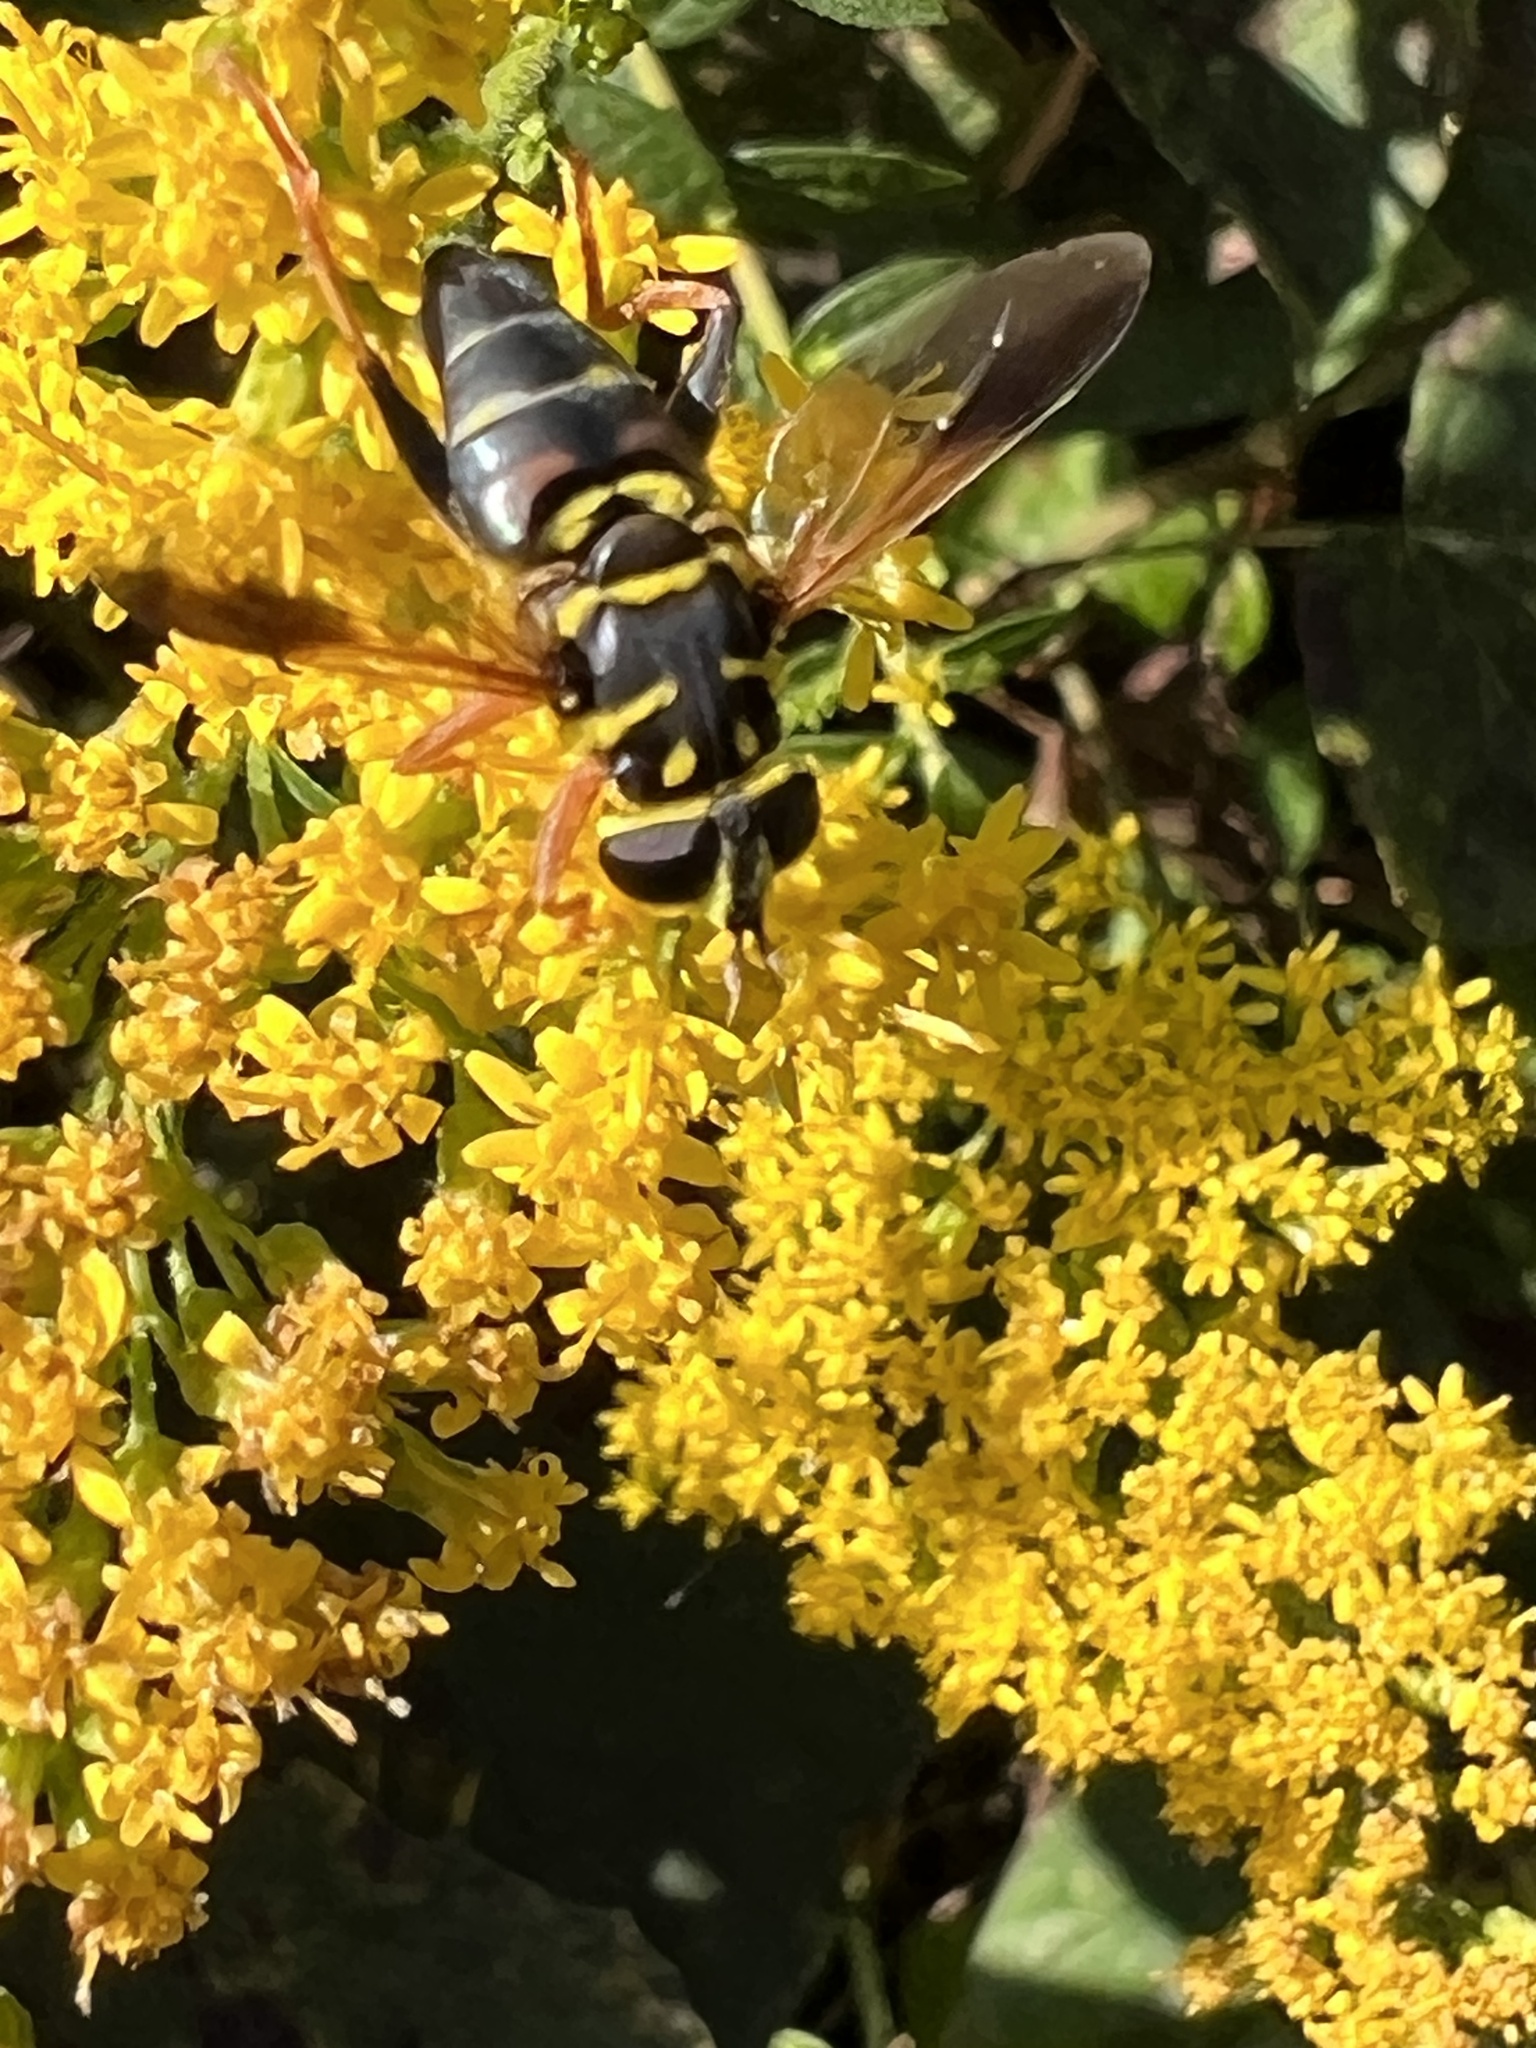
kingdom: Animalia
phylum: Arthropoda
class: Insecta
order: Diptera
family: Syrphidae
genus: Meromacrus
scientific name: Meromacrus acutus
